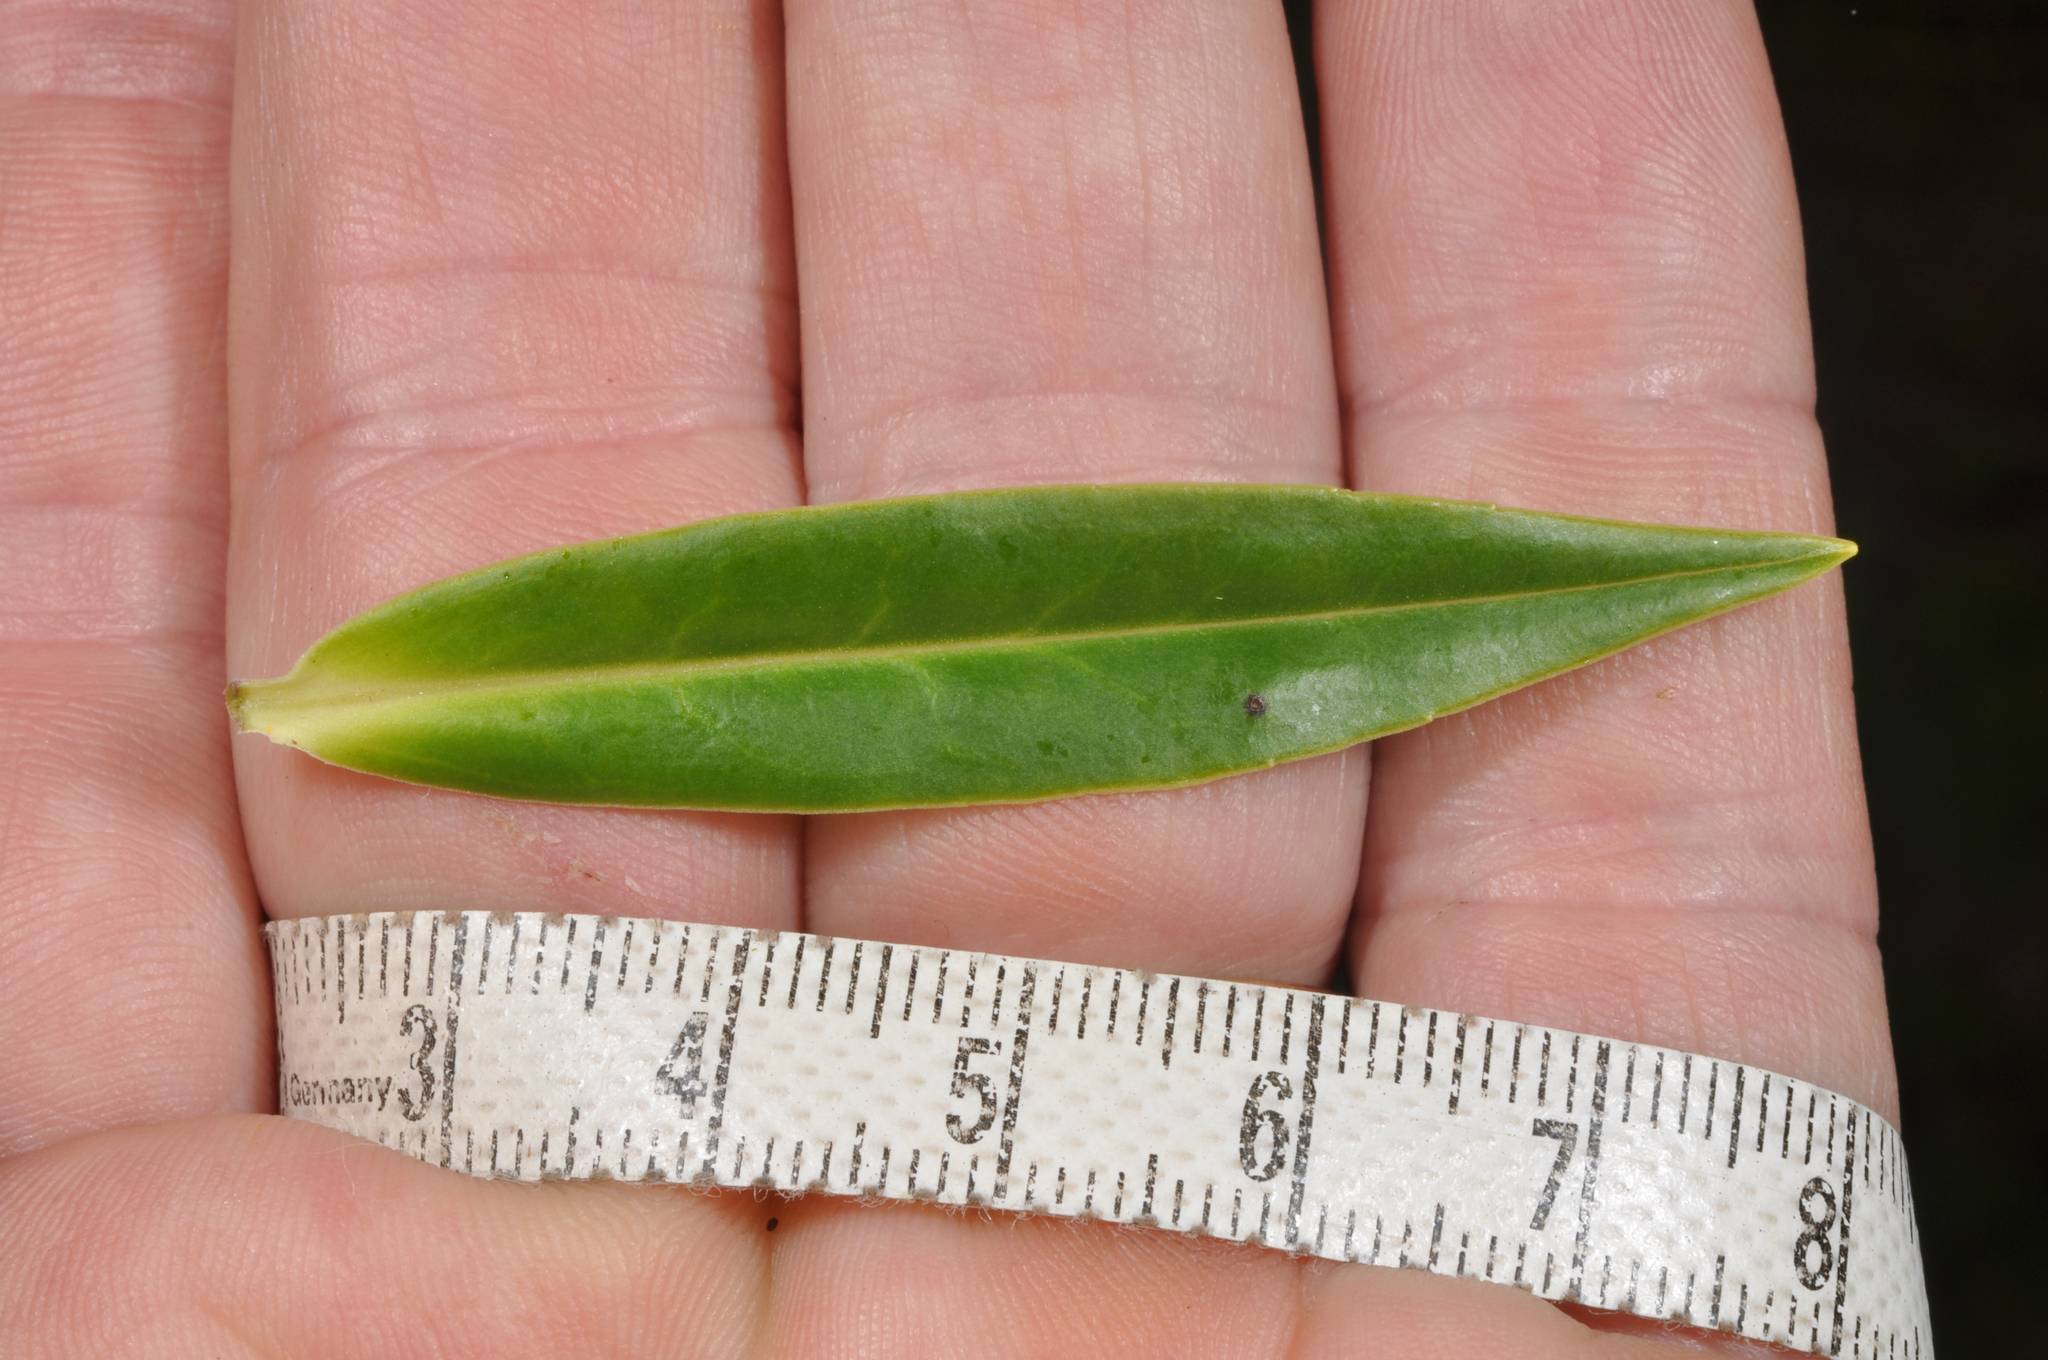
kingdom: Plantae
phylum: Tracheophyta
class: Magnoliopsida
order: Lamiales
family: Plantaginaceae
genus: Veronica
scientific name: Veronica phormiiphila
